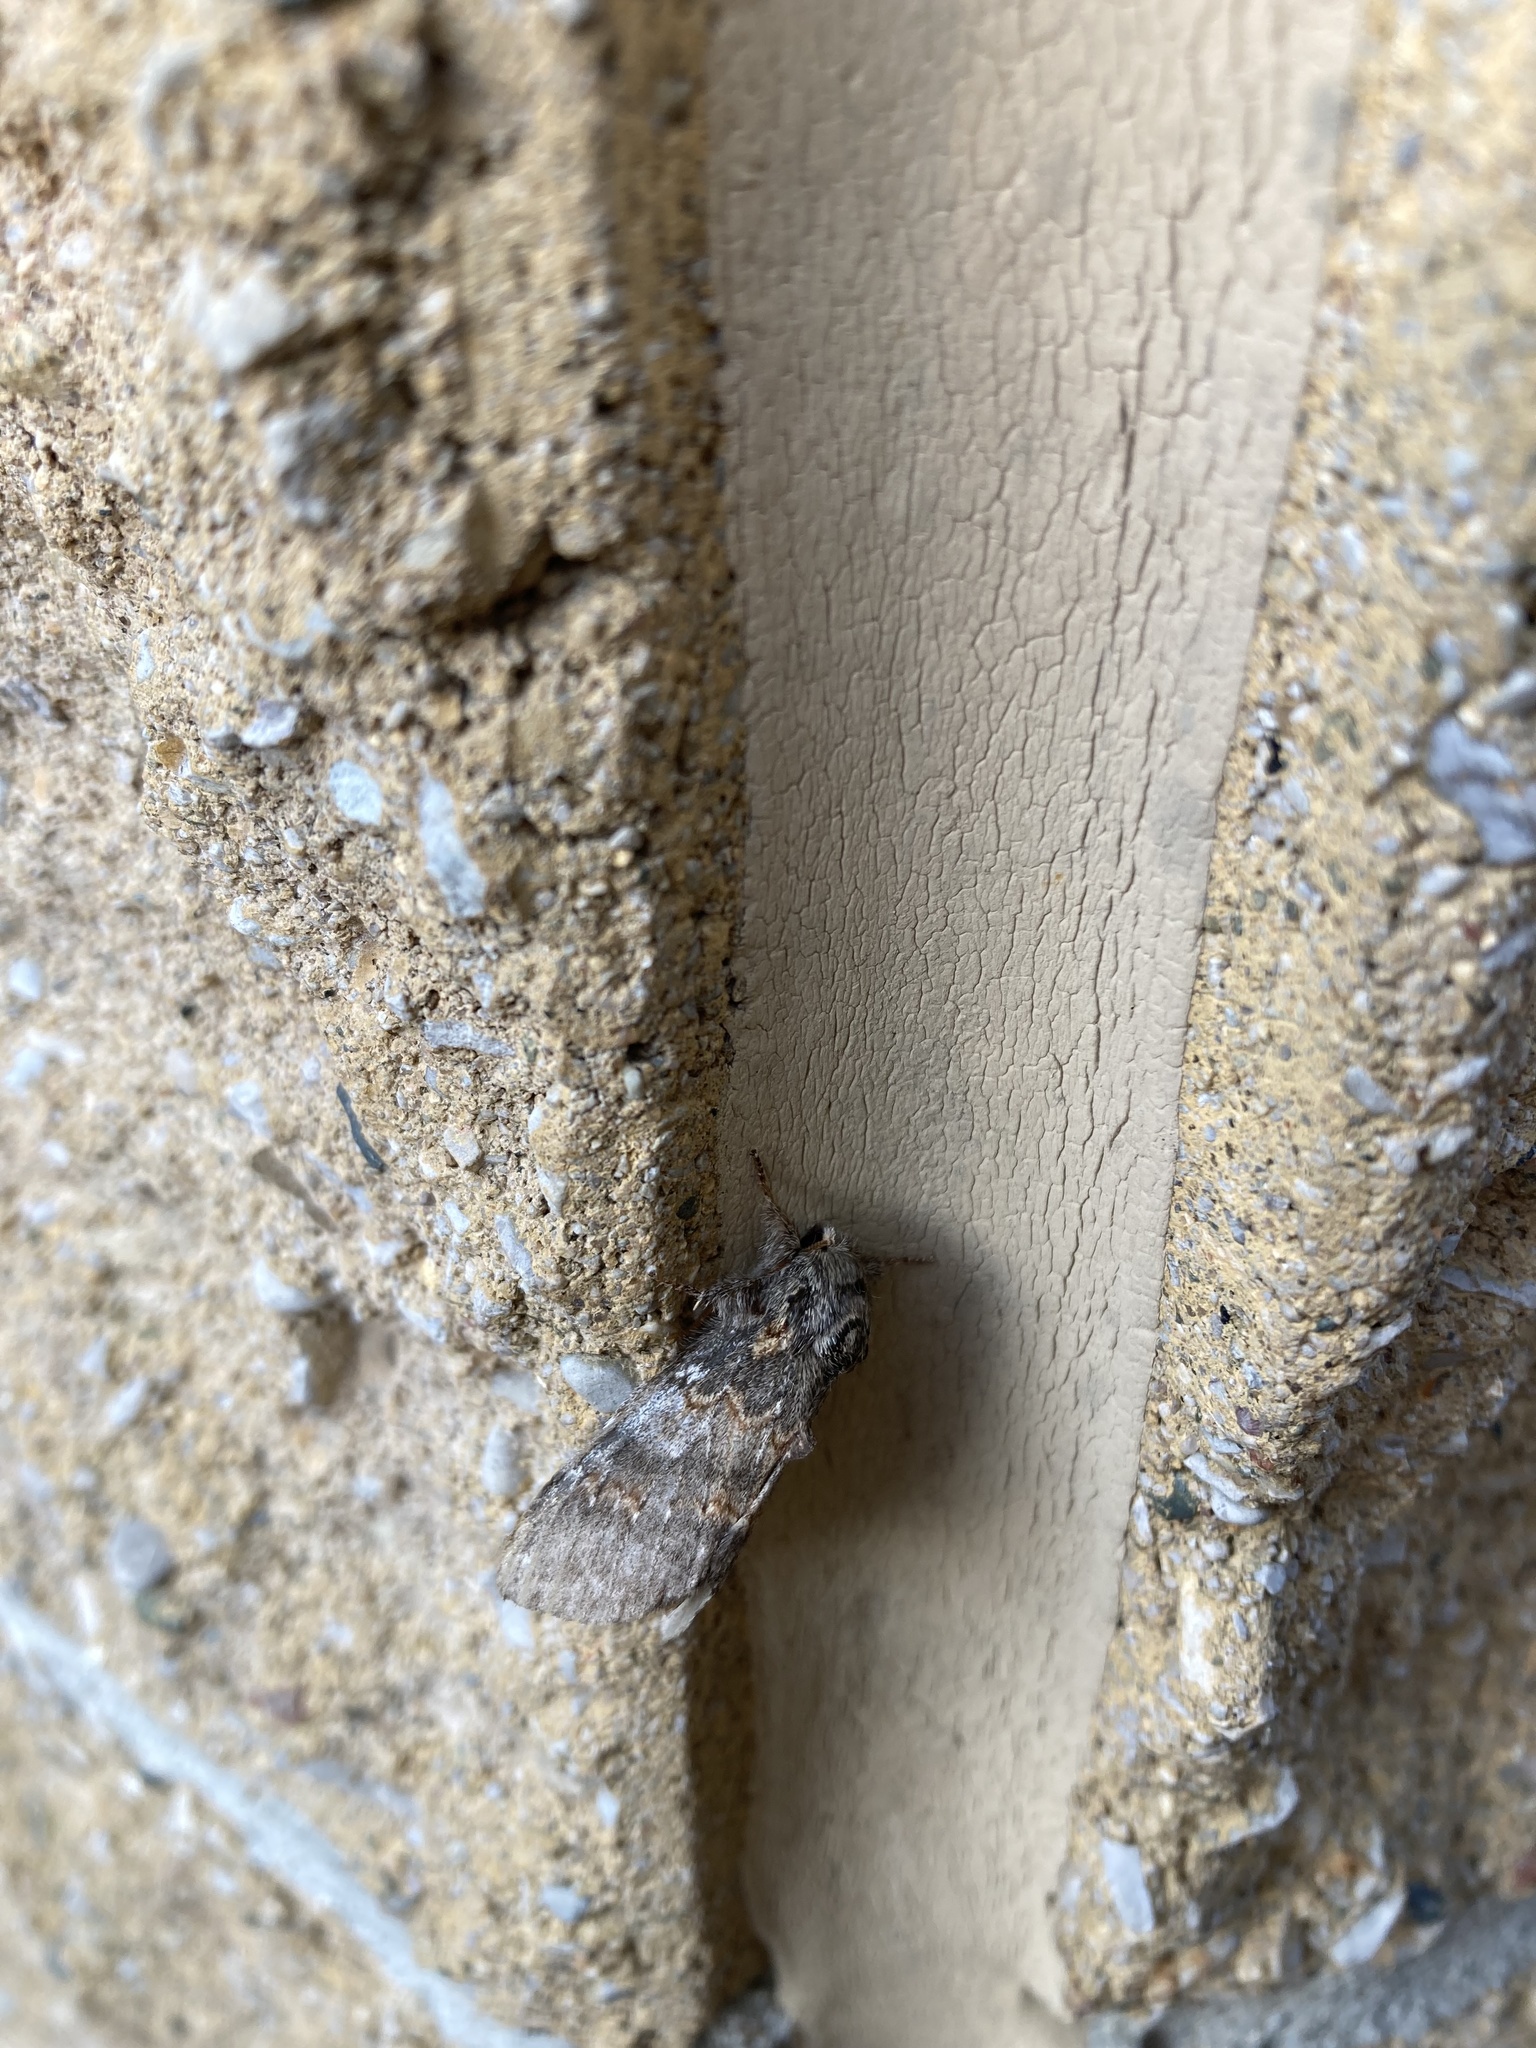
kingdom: Animalia
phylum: Arthropoda
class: Insecta
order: Lepidoptera
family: Notodontidae
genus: Peridea
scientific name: Peridea angulosa
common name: Angulose prominent
